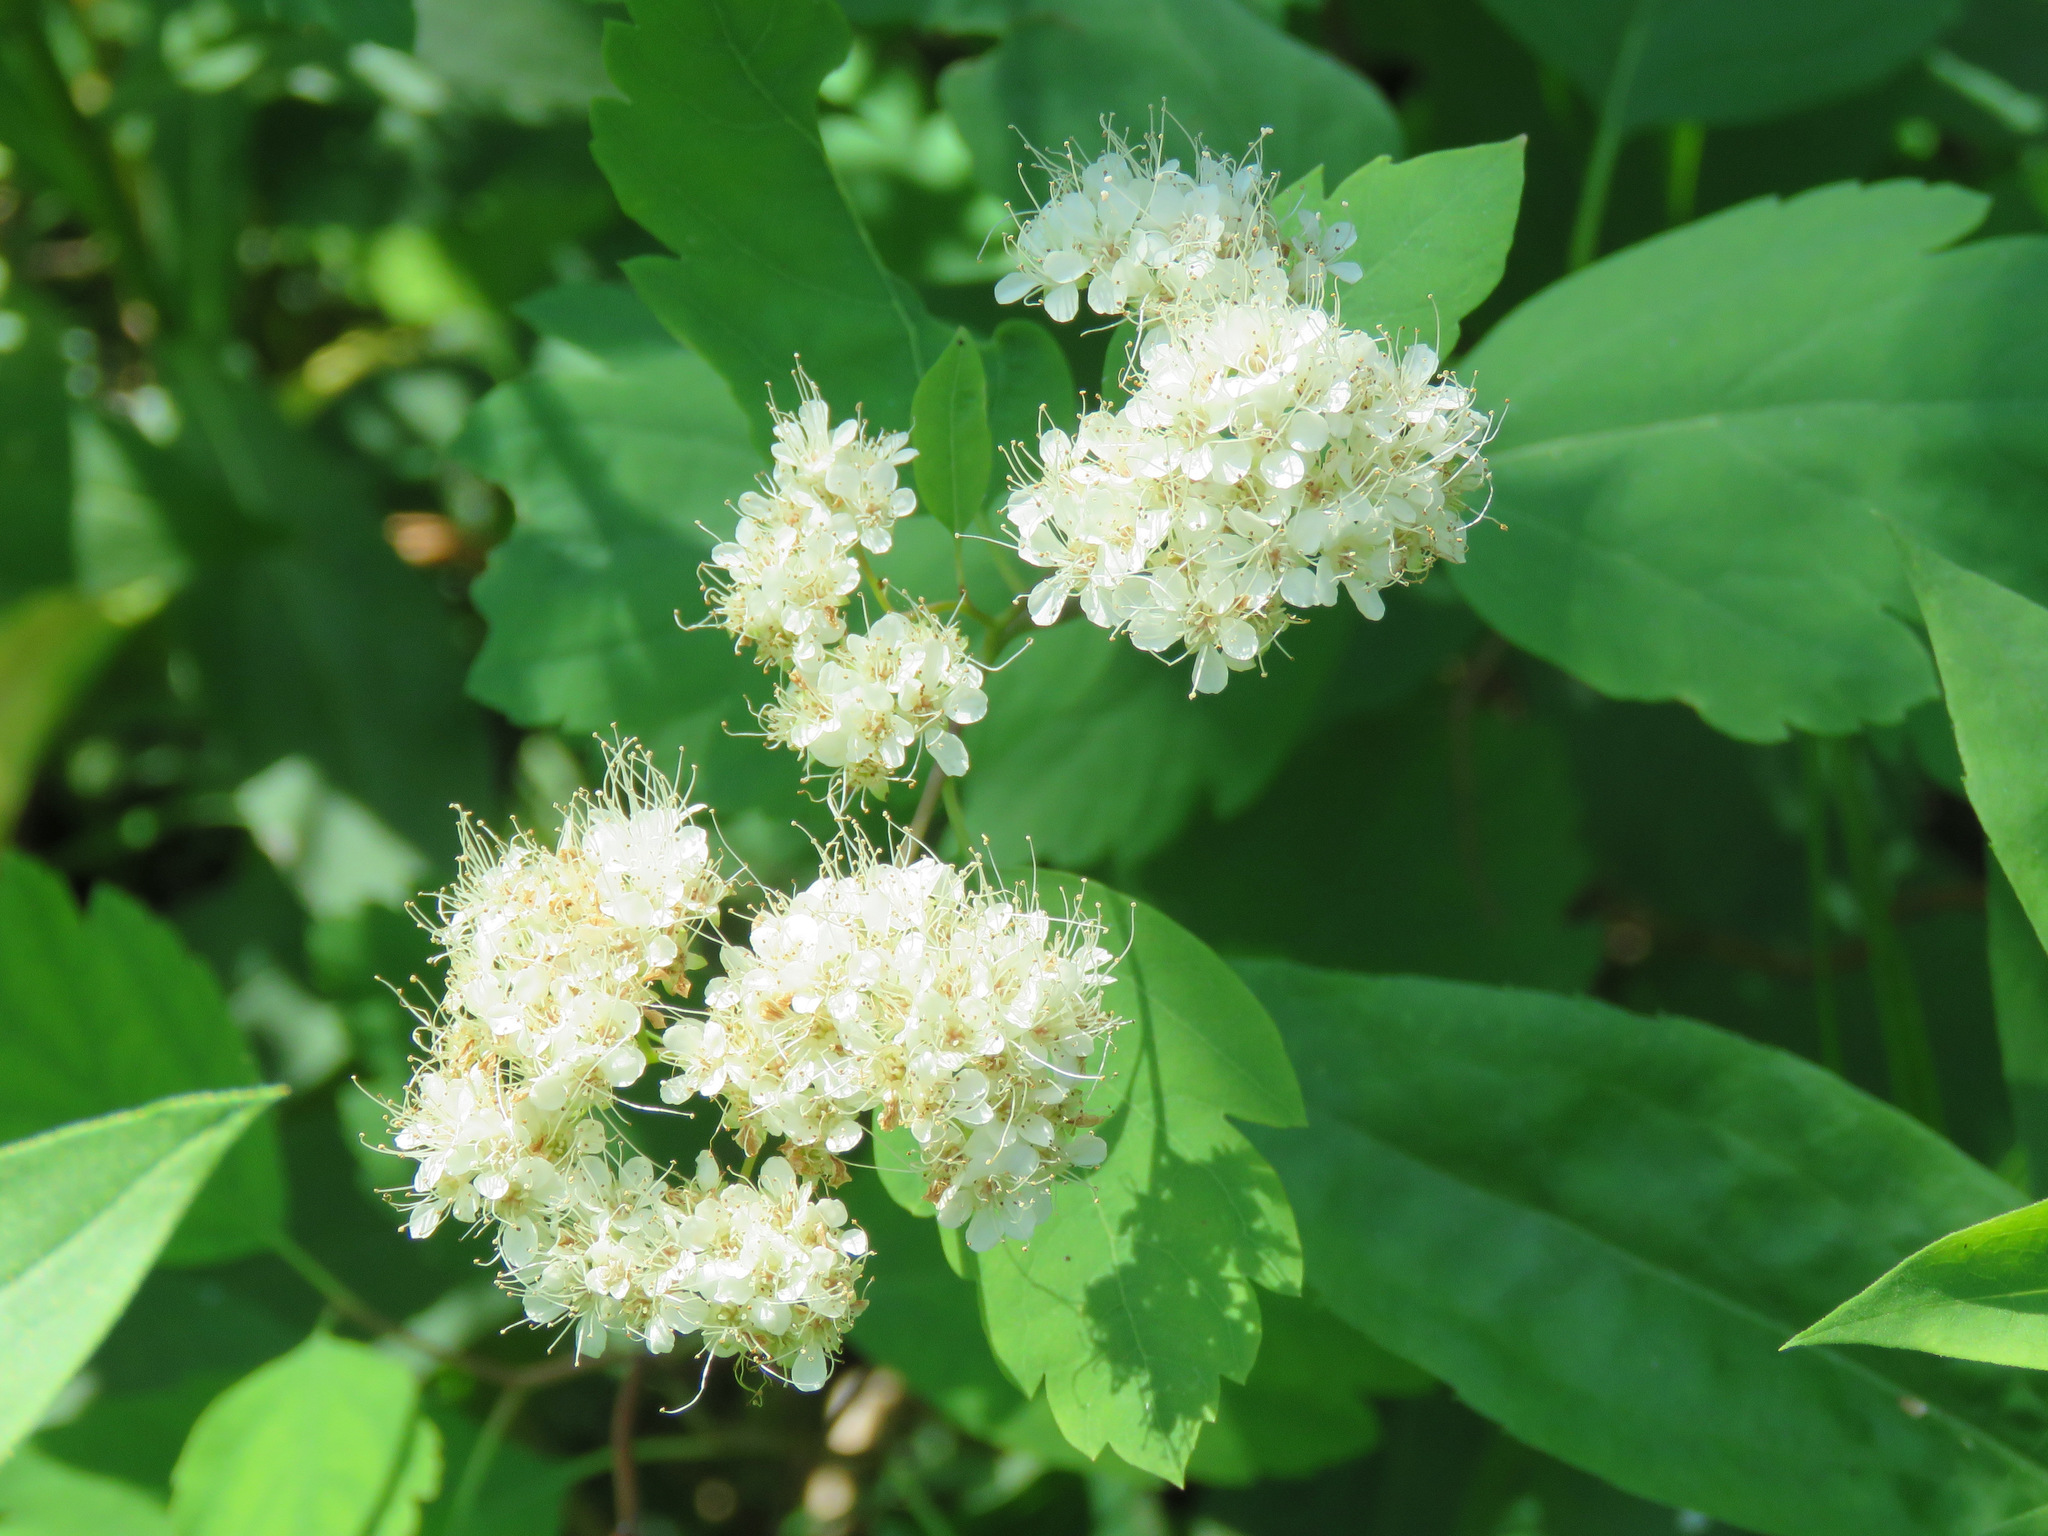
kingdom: Plantae
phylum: Tracheophyta
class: Magnoliopsida
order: Rosales
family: Rosaceae
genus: Spiraea
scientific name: Spiraea lucida
